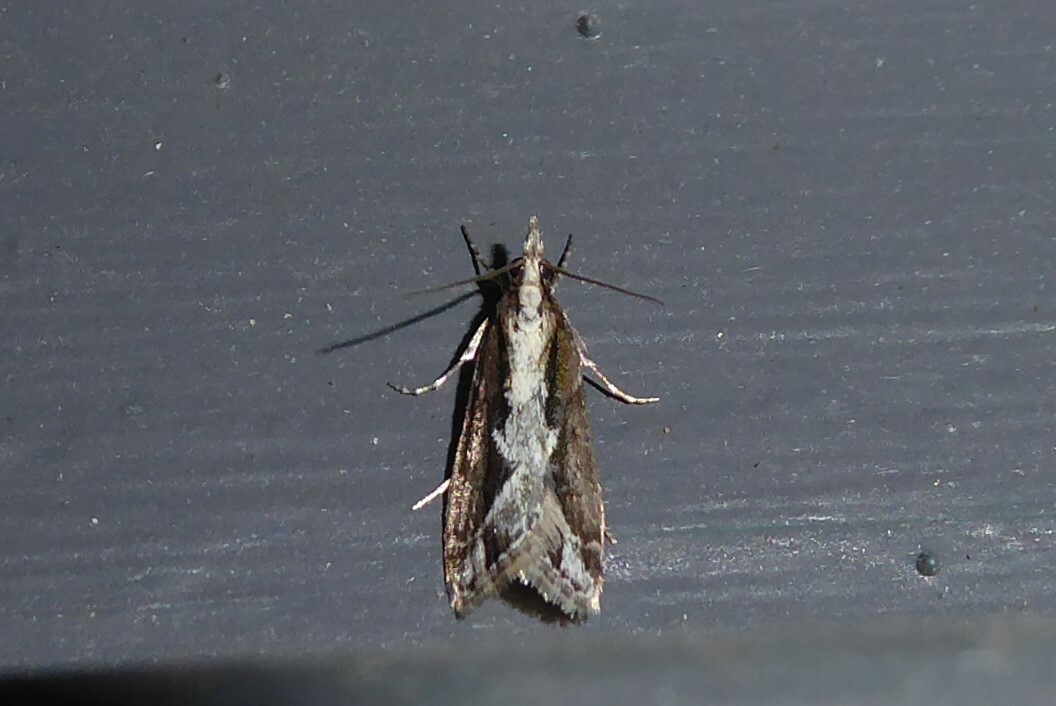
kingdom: Animalia
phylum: Arthropoda
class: Insecta
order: Lepidoptera
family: Crambidae
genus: Eudonia
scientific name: Eudonia steropaea
